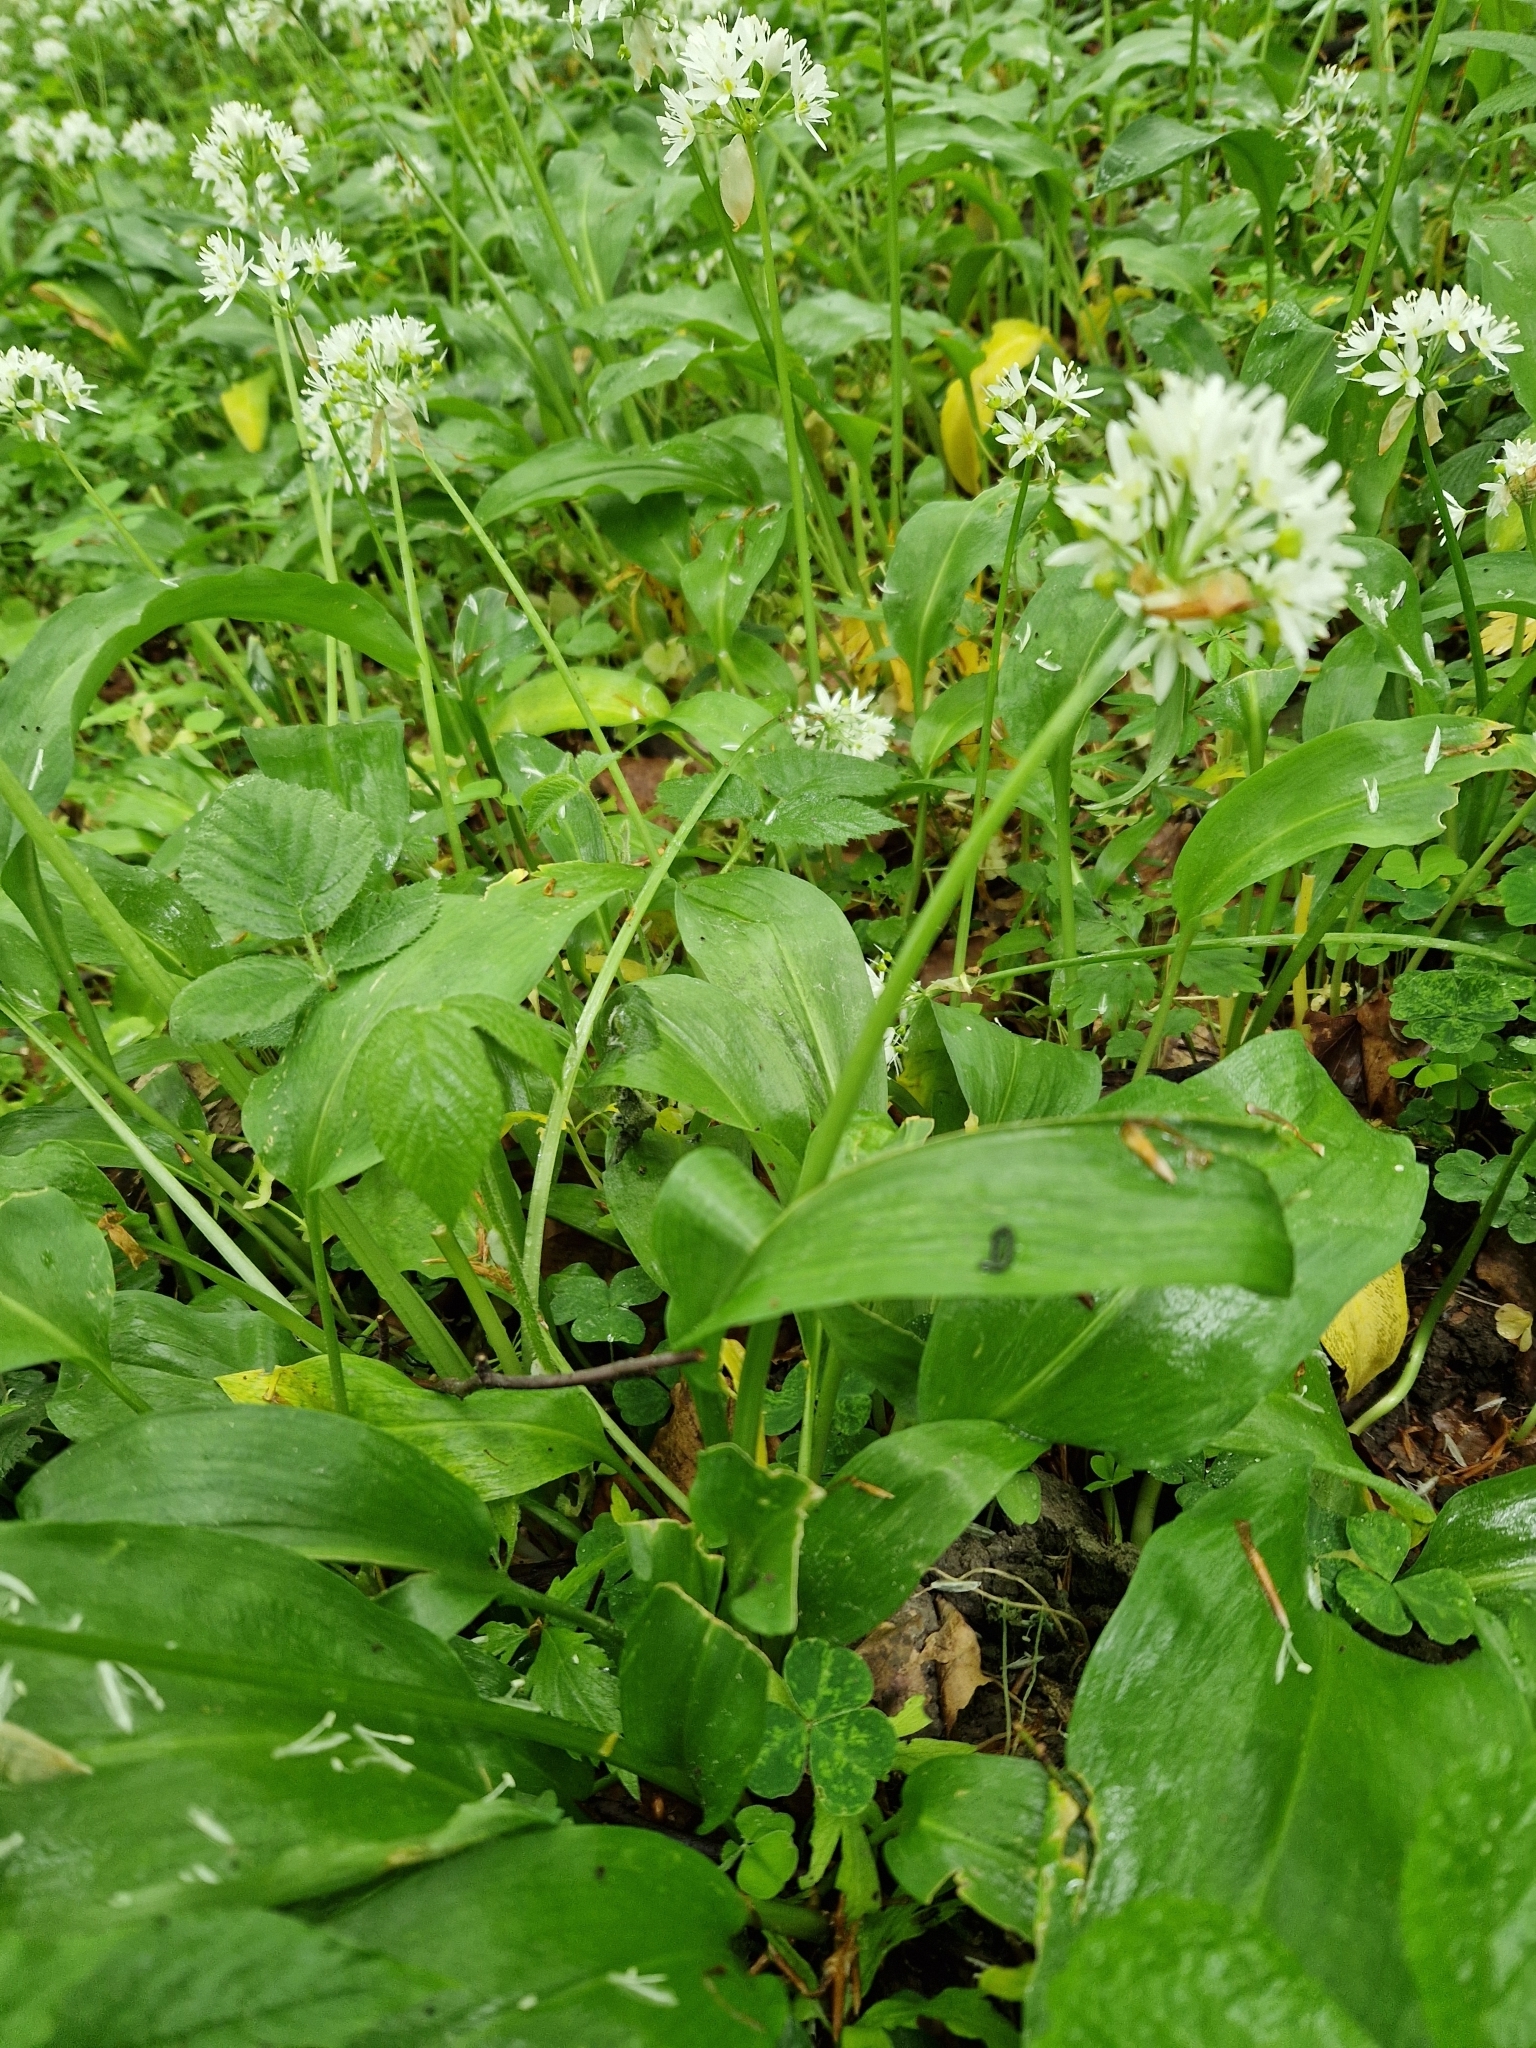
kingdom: Plantae
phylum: Tracheophyta
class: Liliopsida
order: Asparagales
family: Amaryllidaceae
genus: Allium
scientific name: Allium ursinum
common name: Ramsons
